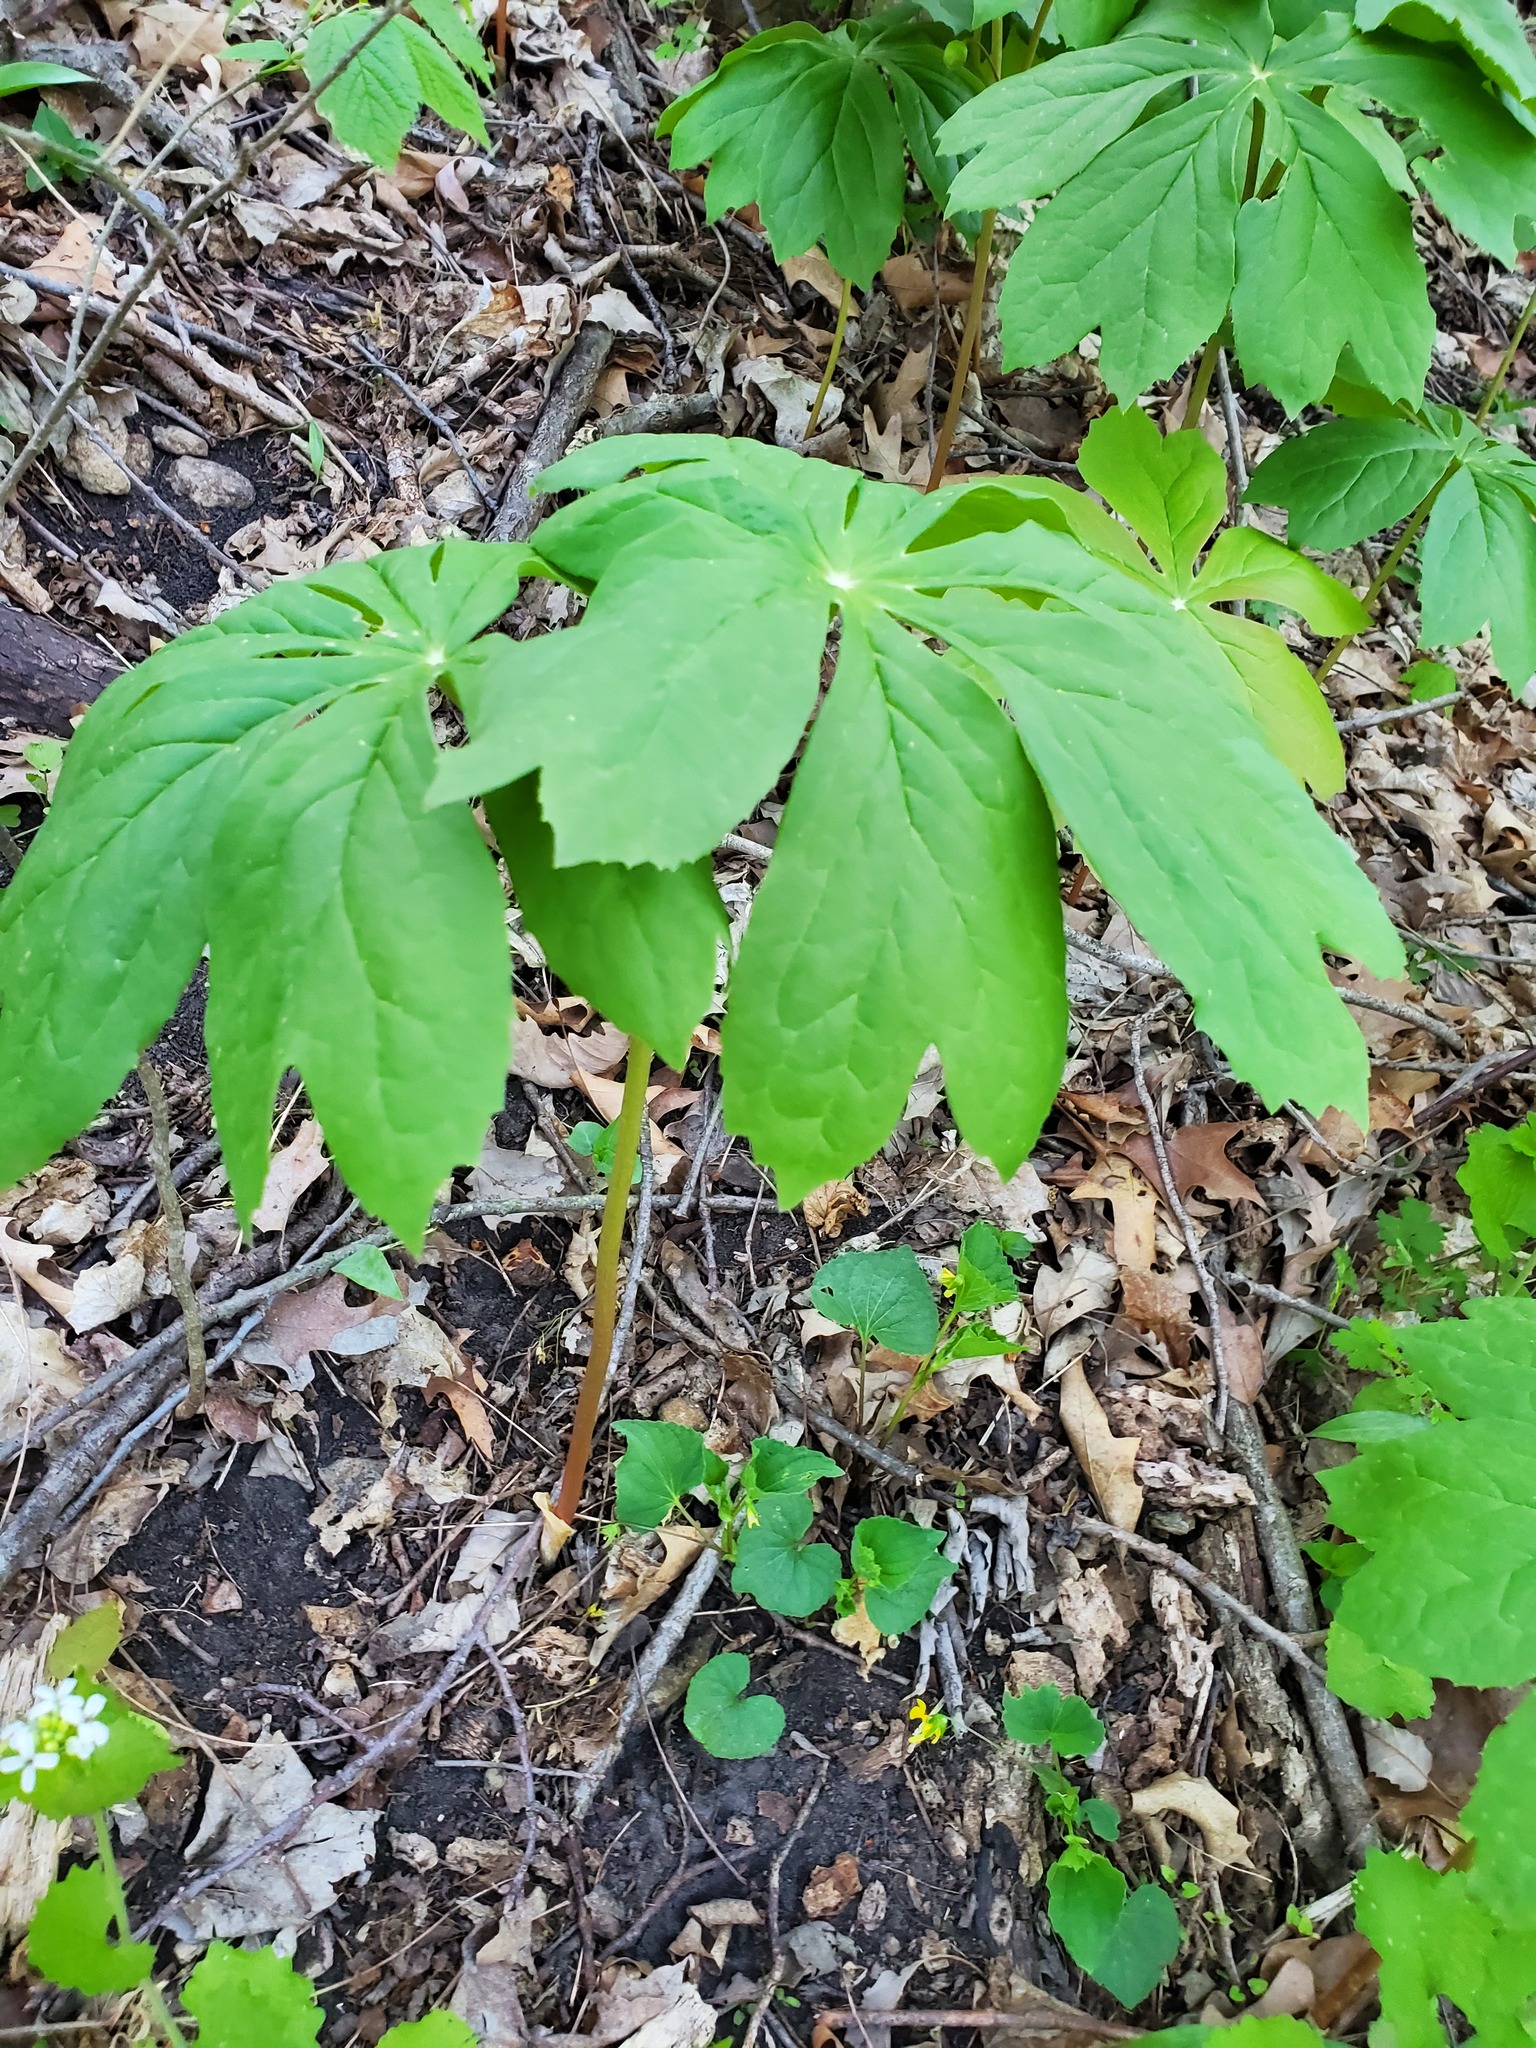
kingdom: Plantae
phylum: Tracheophyta
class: Magnoliopsida
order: Ranunculales
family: Berberidaceae
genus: Podophyllum
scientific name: Podophyllum peltatum
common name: Wild mandrake
